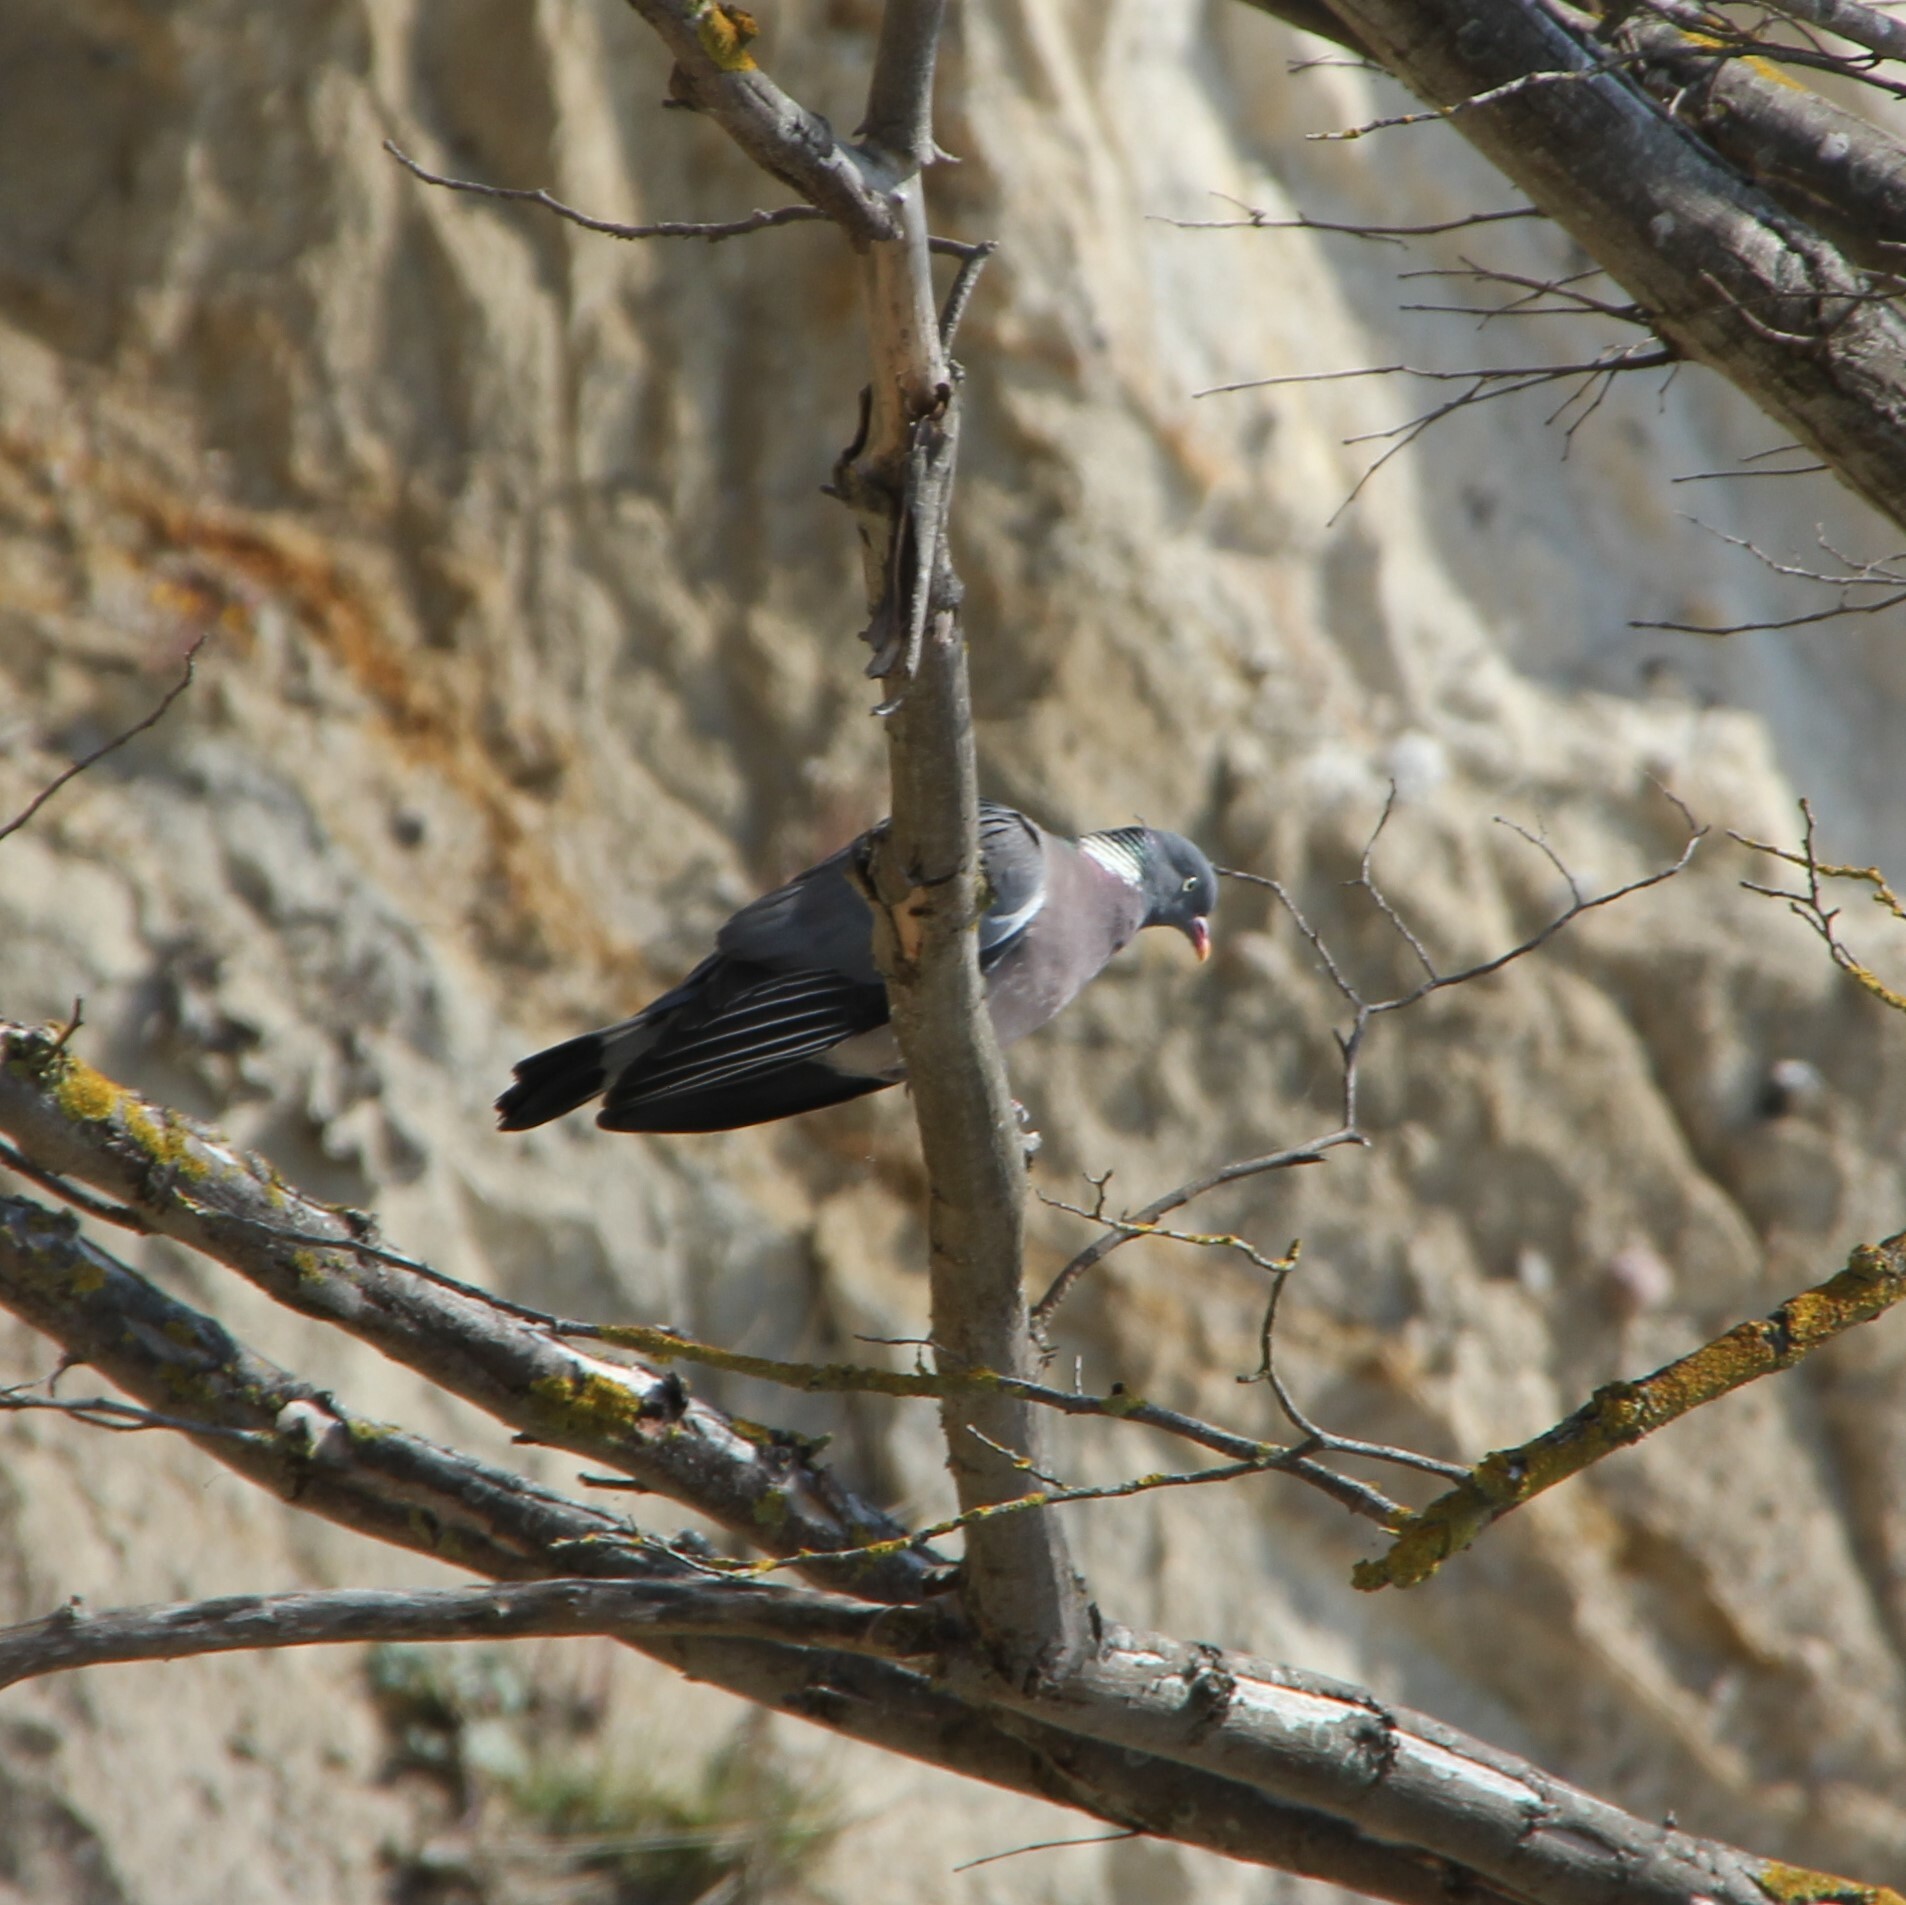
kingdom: Animalia
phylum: Chordata
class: Aves
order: Columbiformes
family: Columbidae
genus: Columba
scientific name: Columba palumbus
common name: Common wood pigeon
